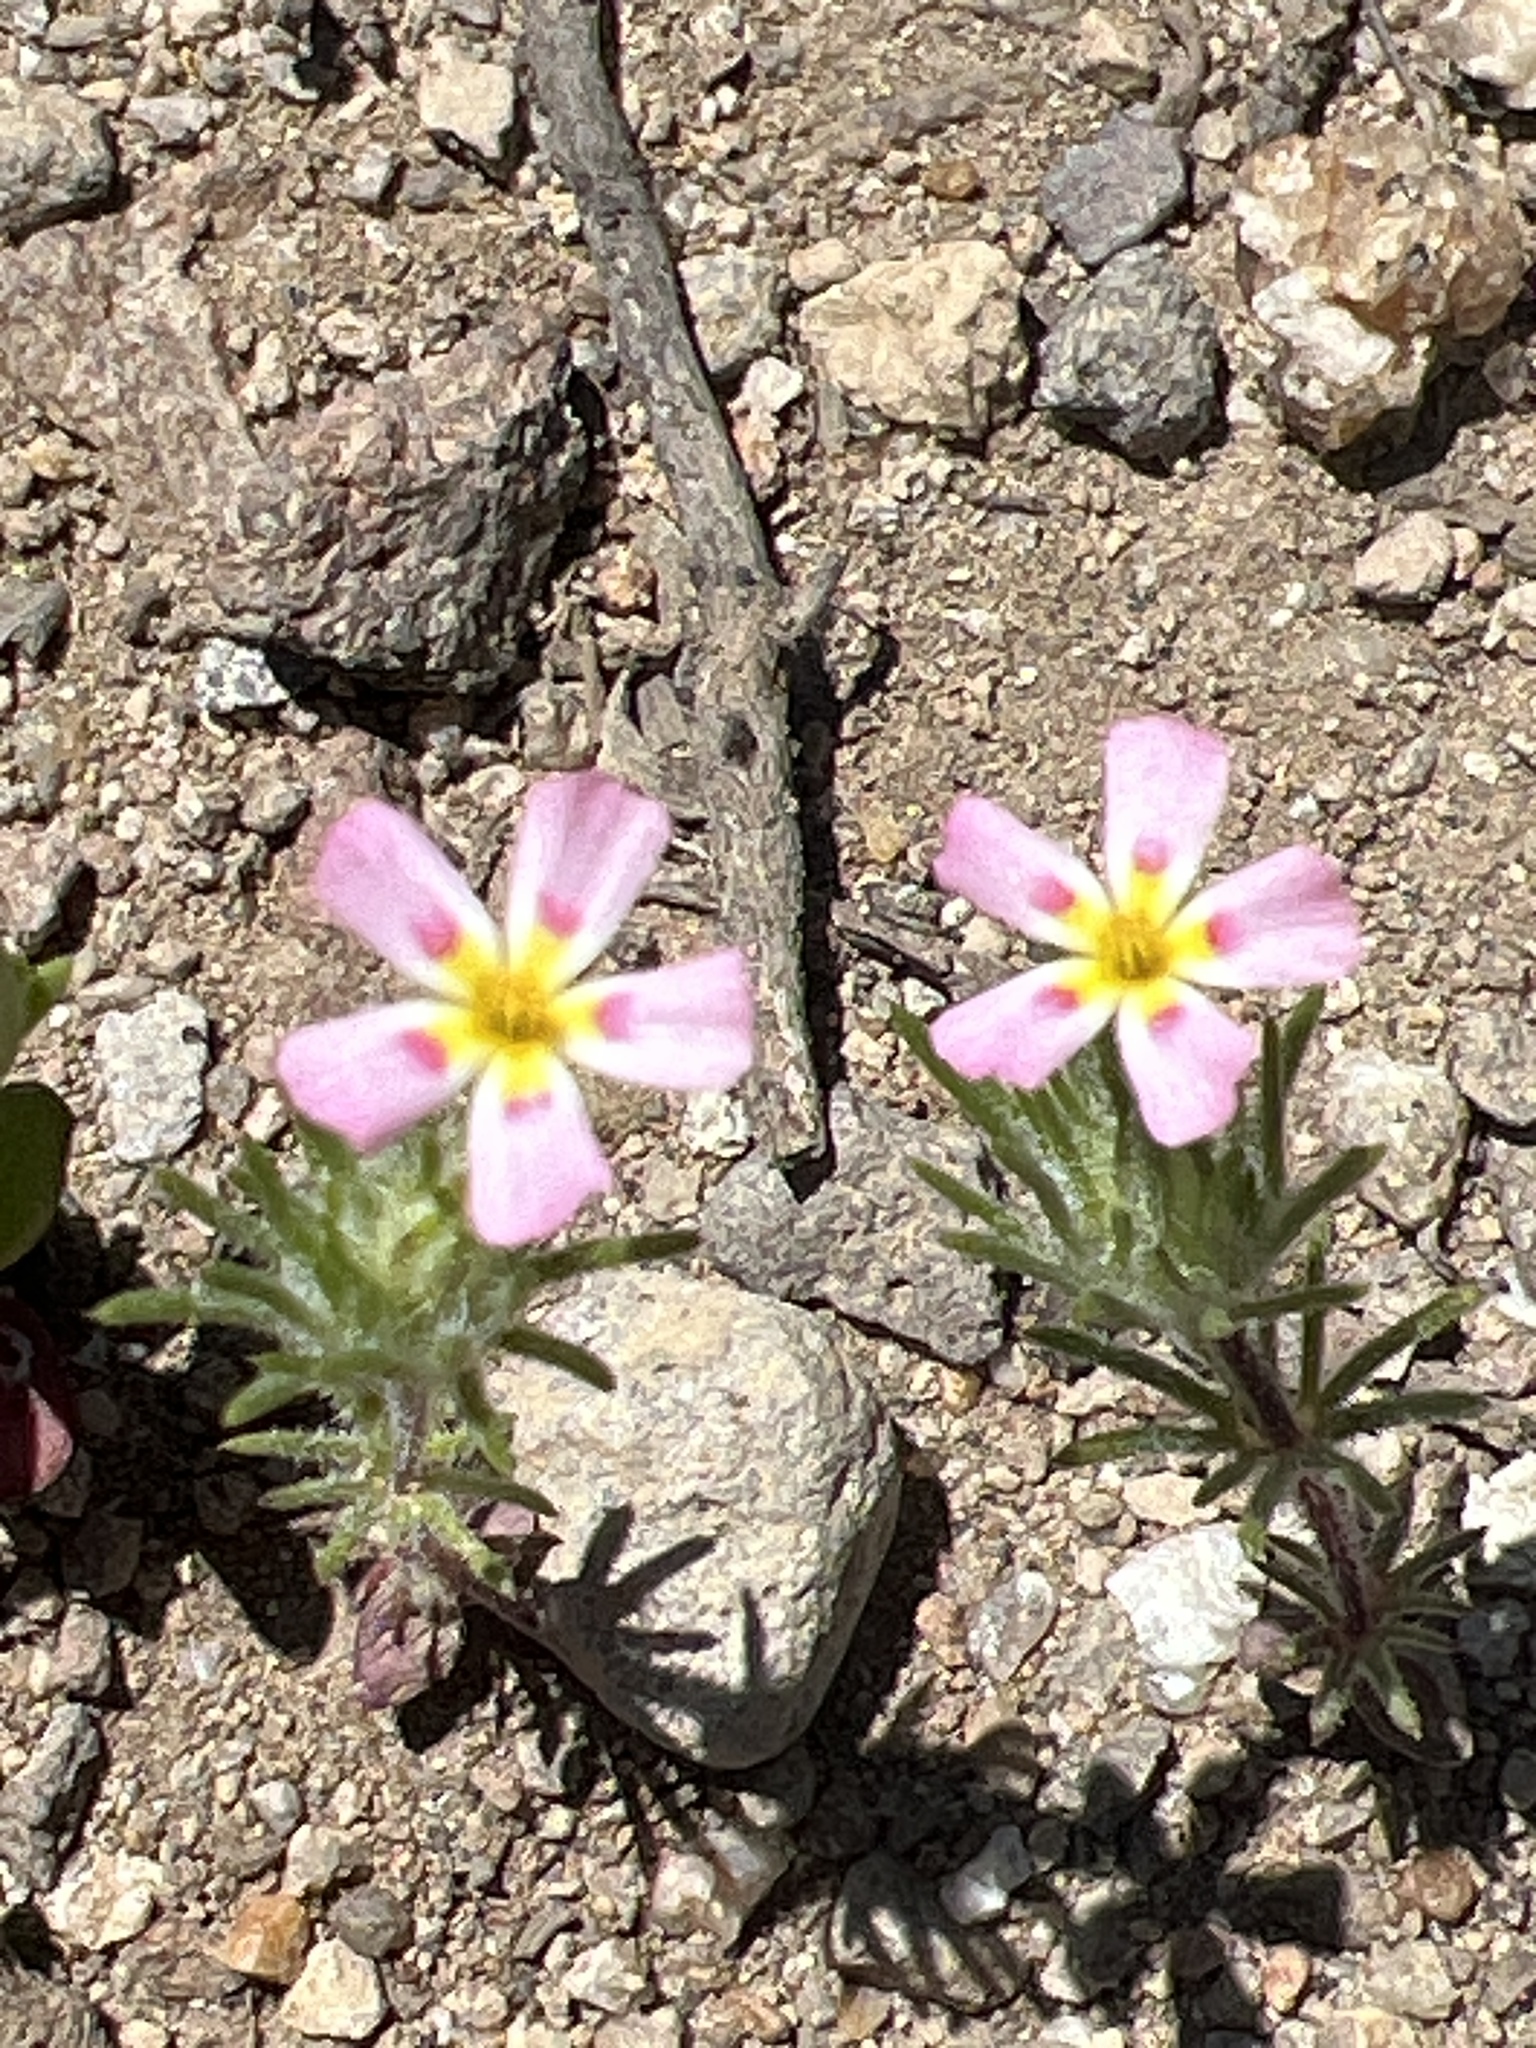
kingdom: Plantae
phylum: Tracheophyta
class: Magnoliopsida
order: Ericales
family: Polemoniaceae
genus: Leptosiphon
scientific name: Leptosiphon ciliatus
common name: Whiskerbrush
